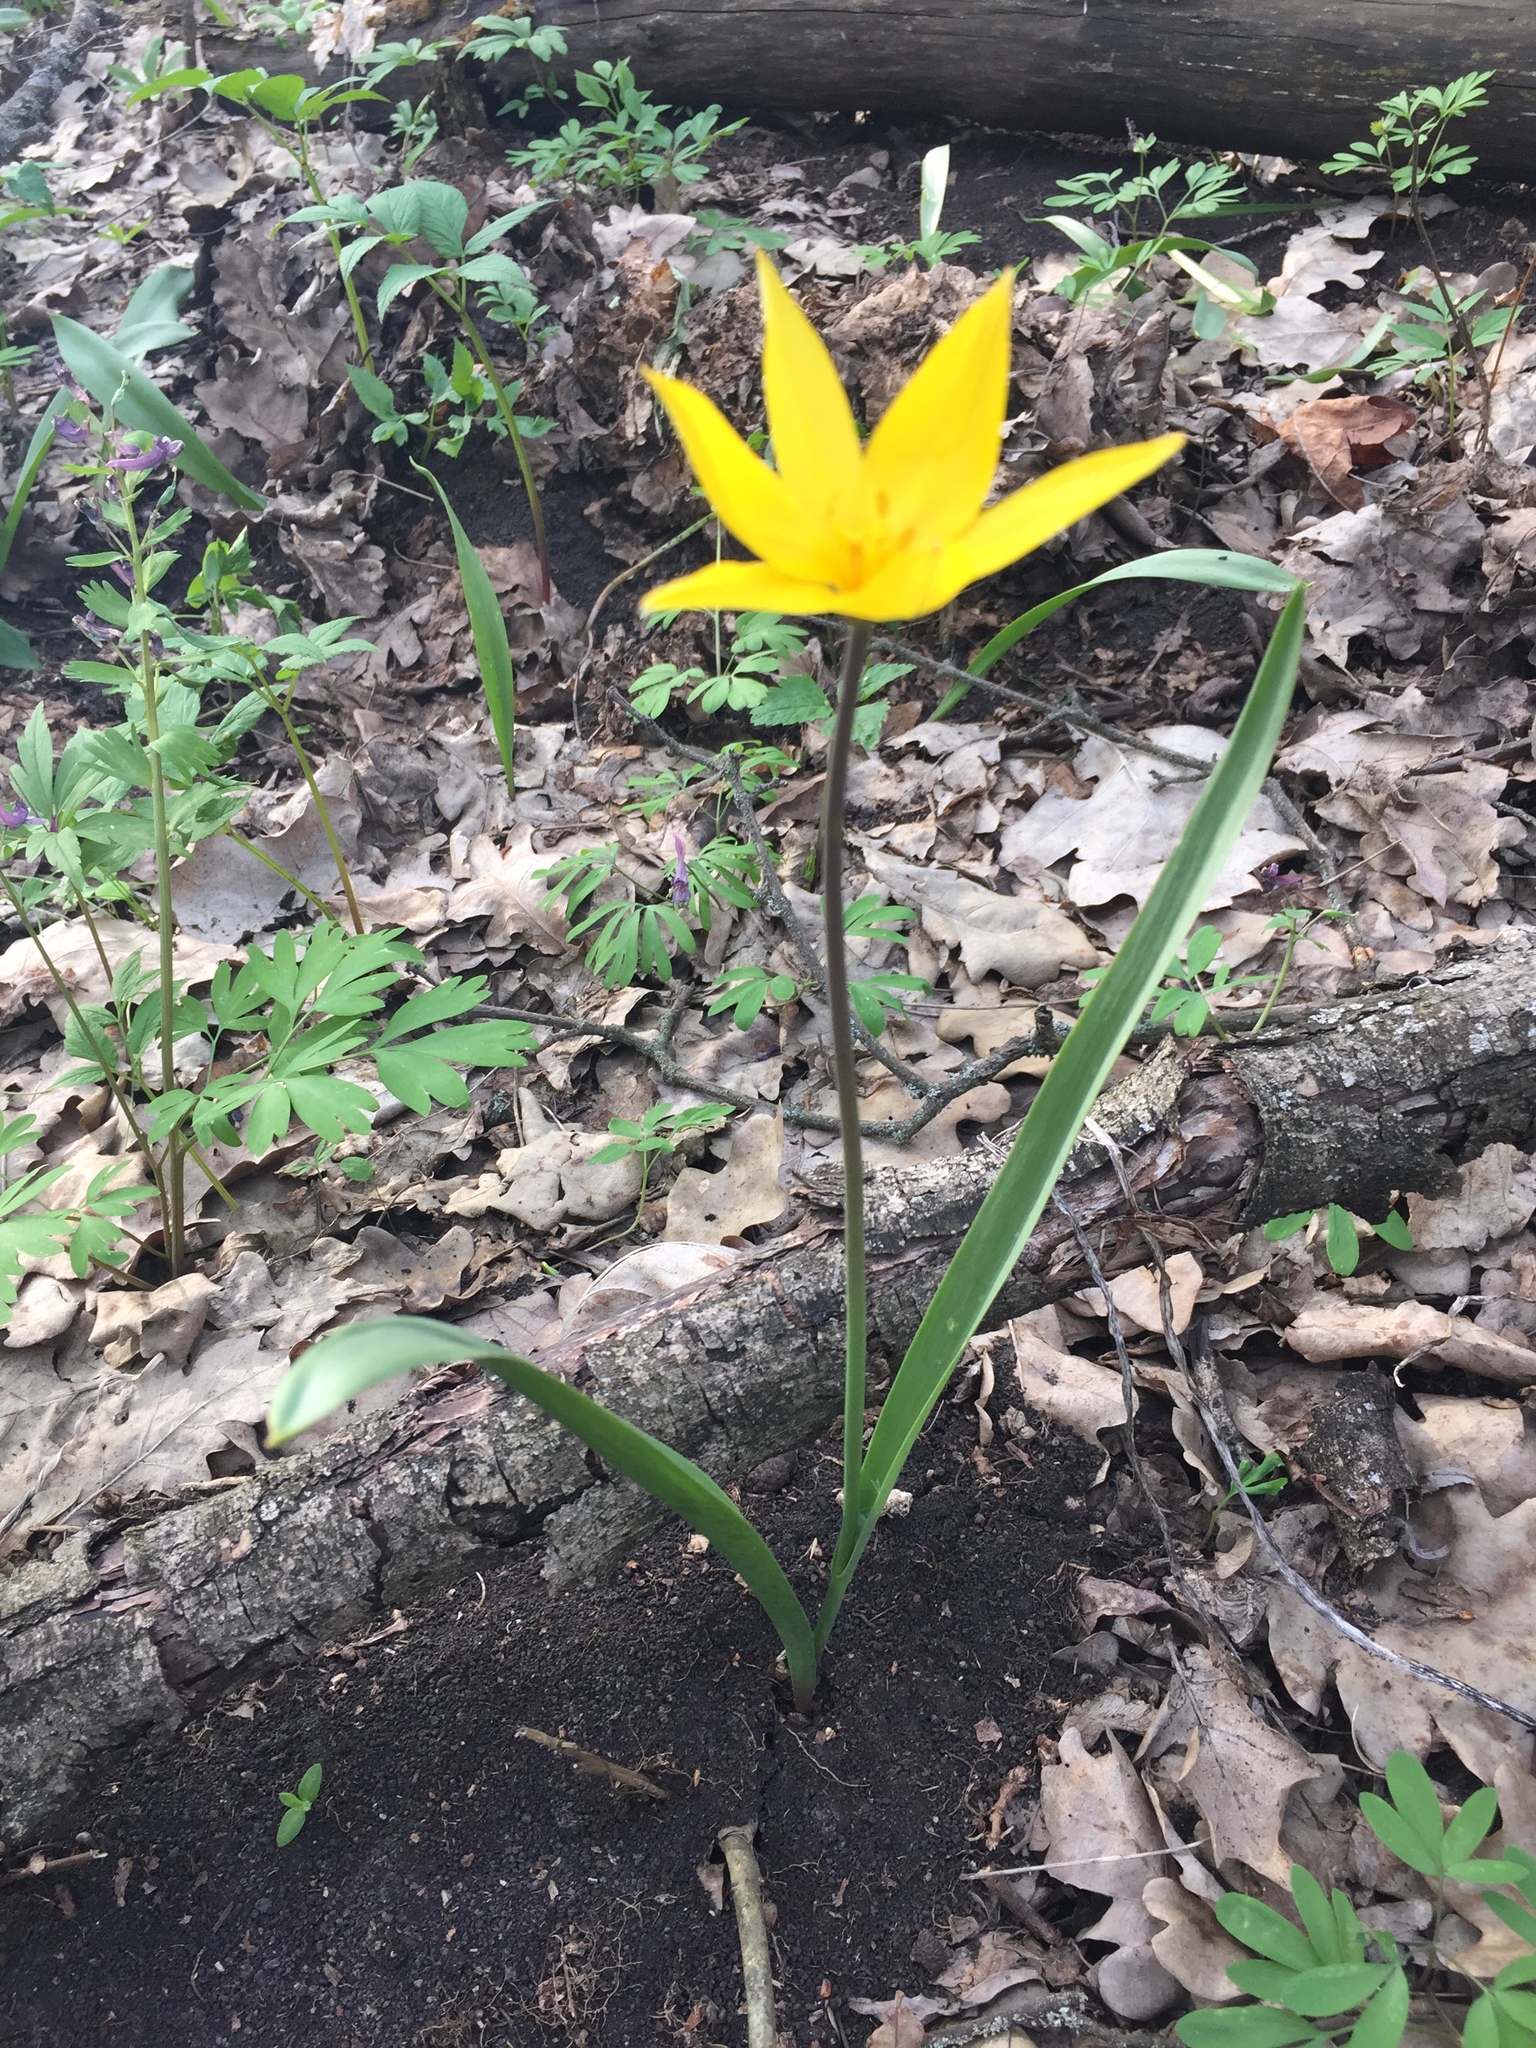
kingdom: Plantae
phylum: Tracheophyta
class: Liliopsida
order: Liliales
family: Liliaceae
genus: Tulipa
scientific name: Tulipa sylvestris
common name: Wild tulip
